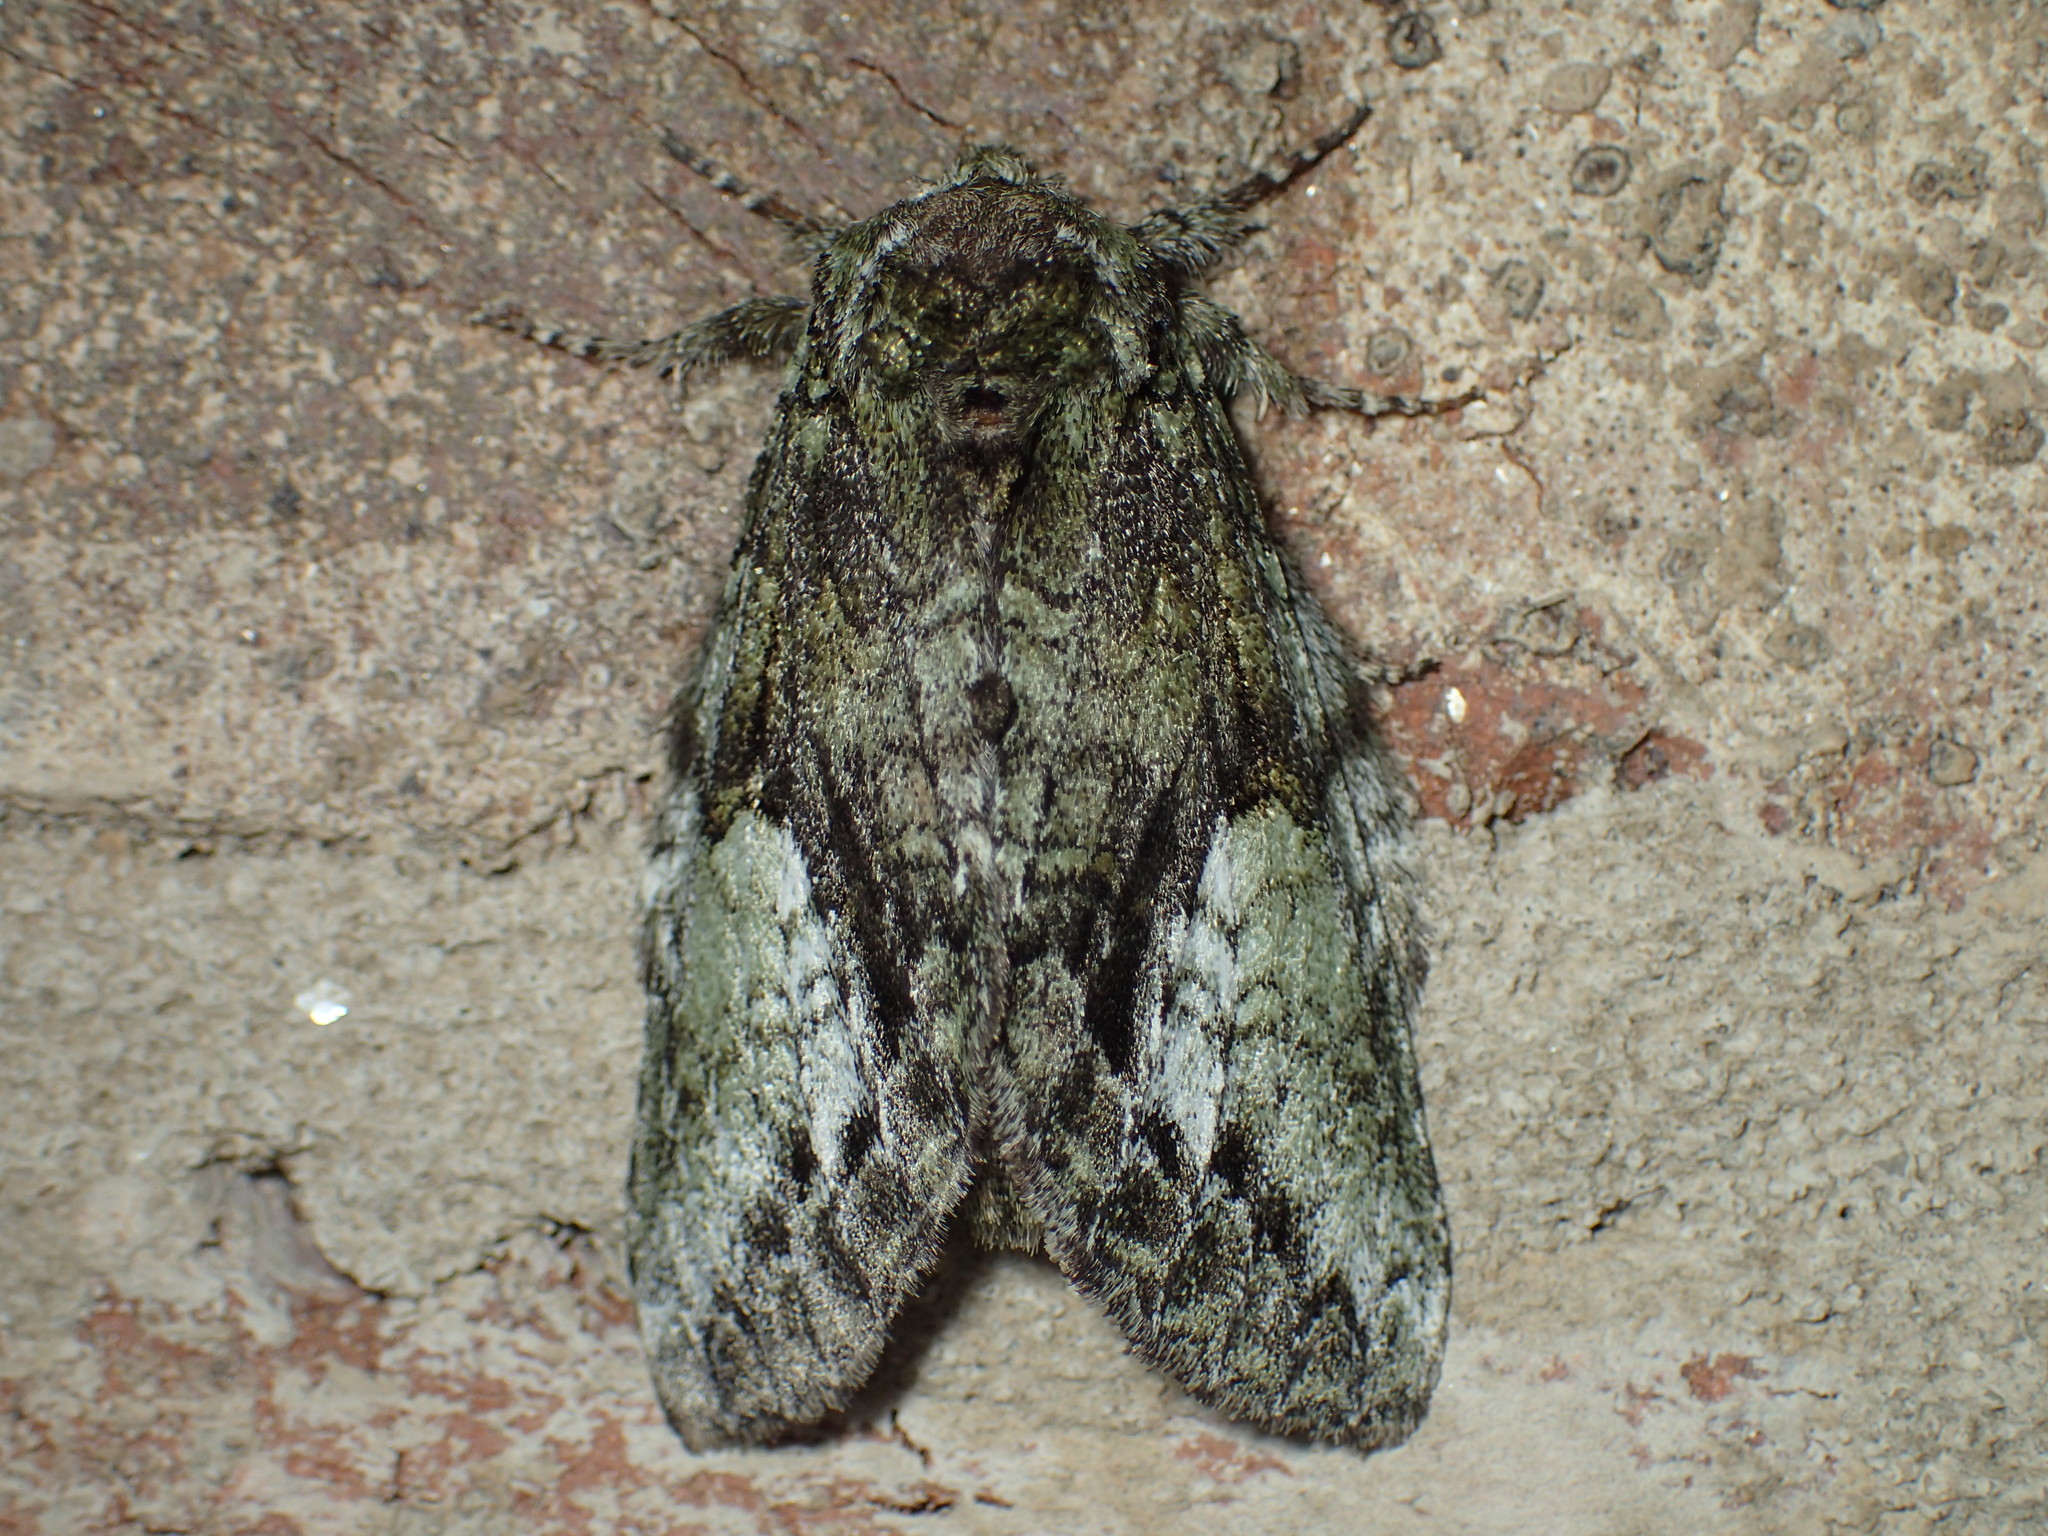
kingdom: Animalia
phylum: Arthropoda
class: Insecta
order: Lepidoptera
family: Notodontidae
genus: Heterocampa
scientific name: Heterocampa
